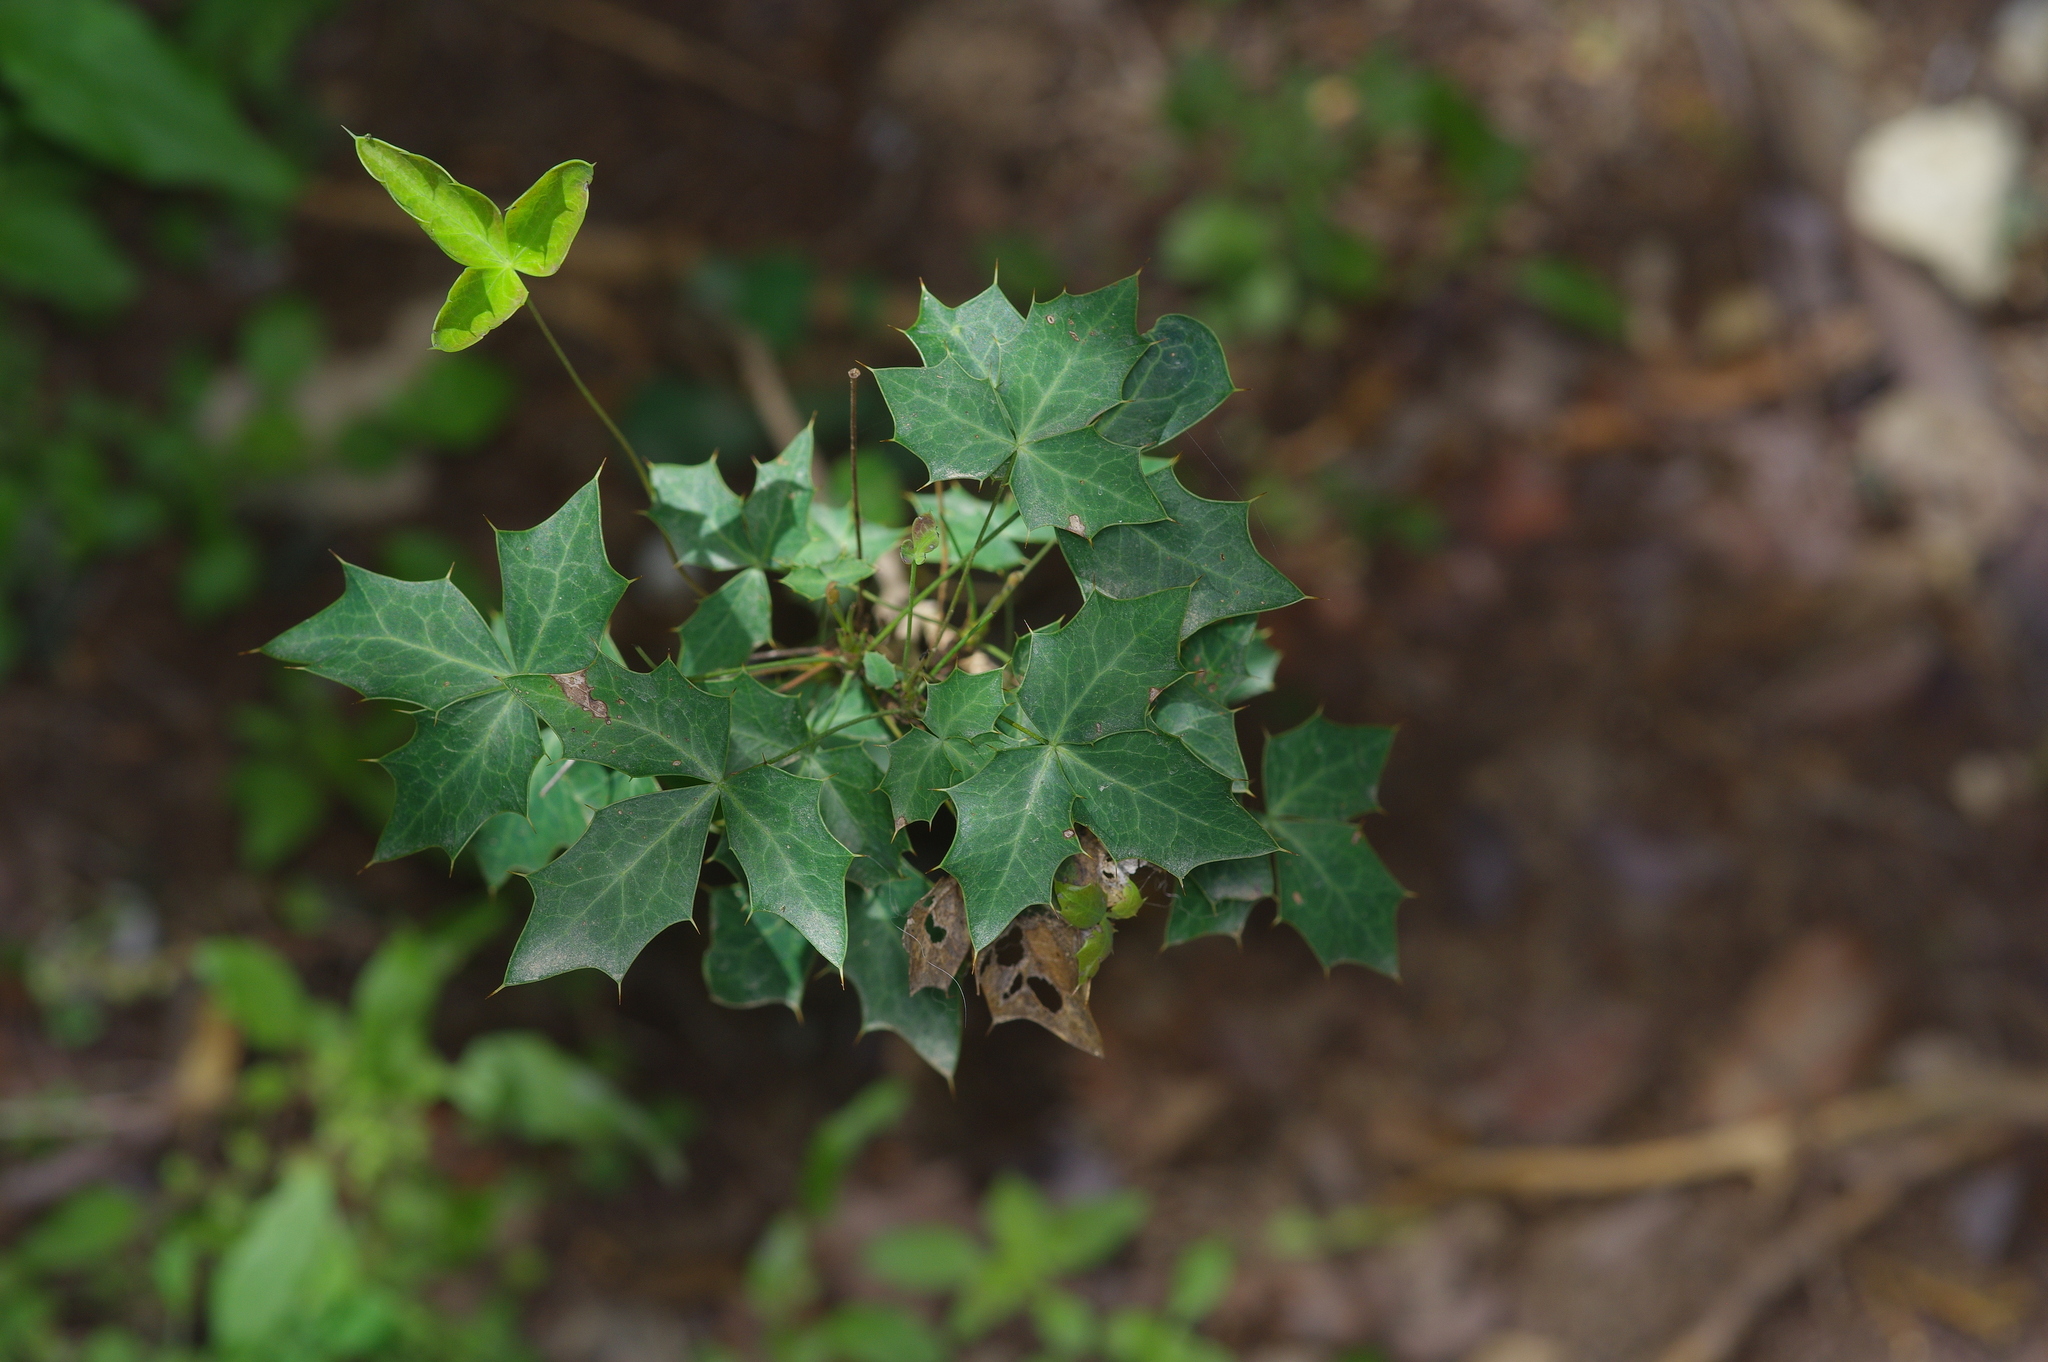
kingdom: Plantae
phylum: Tracheophyta
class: Magnoliopsida
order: Ranunculales
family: Berberidaceae
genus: Alloberberis
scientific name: Alloberberis trifoliolata
